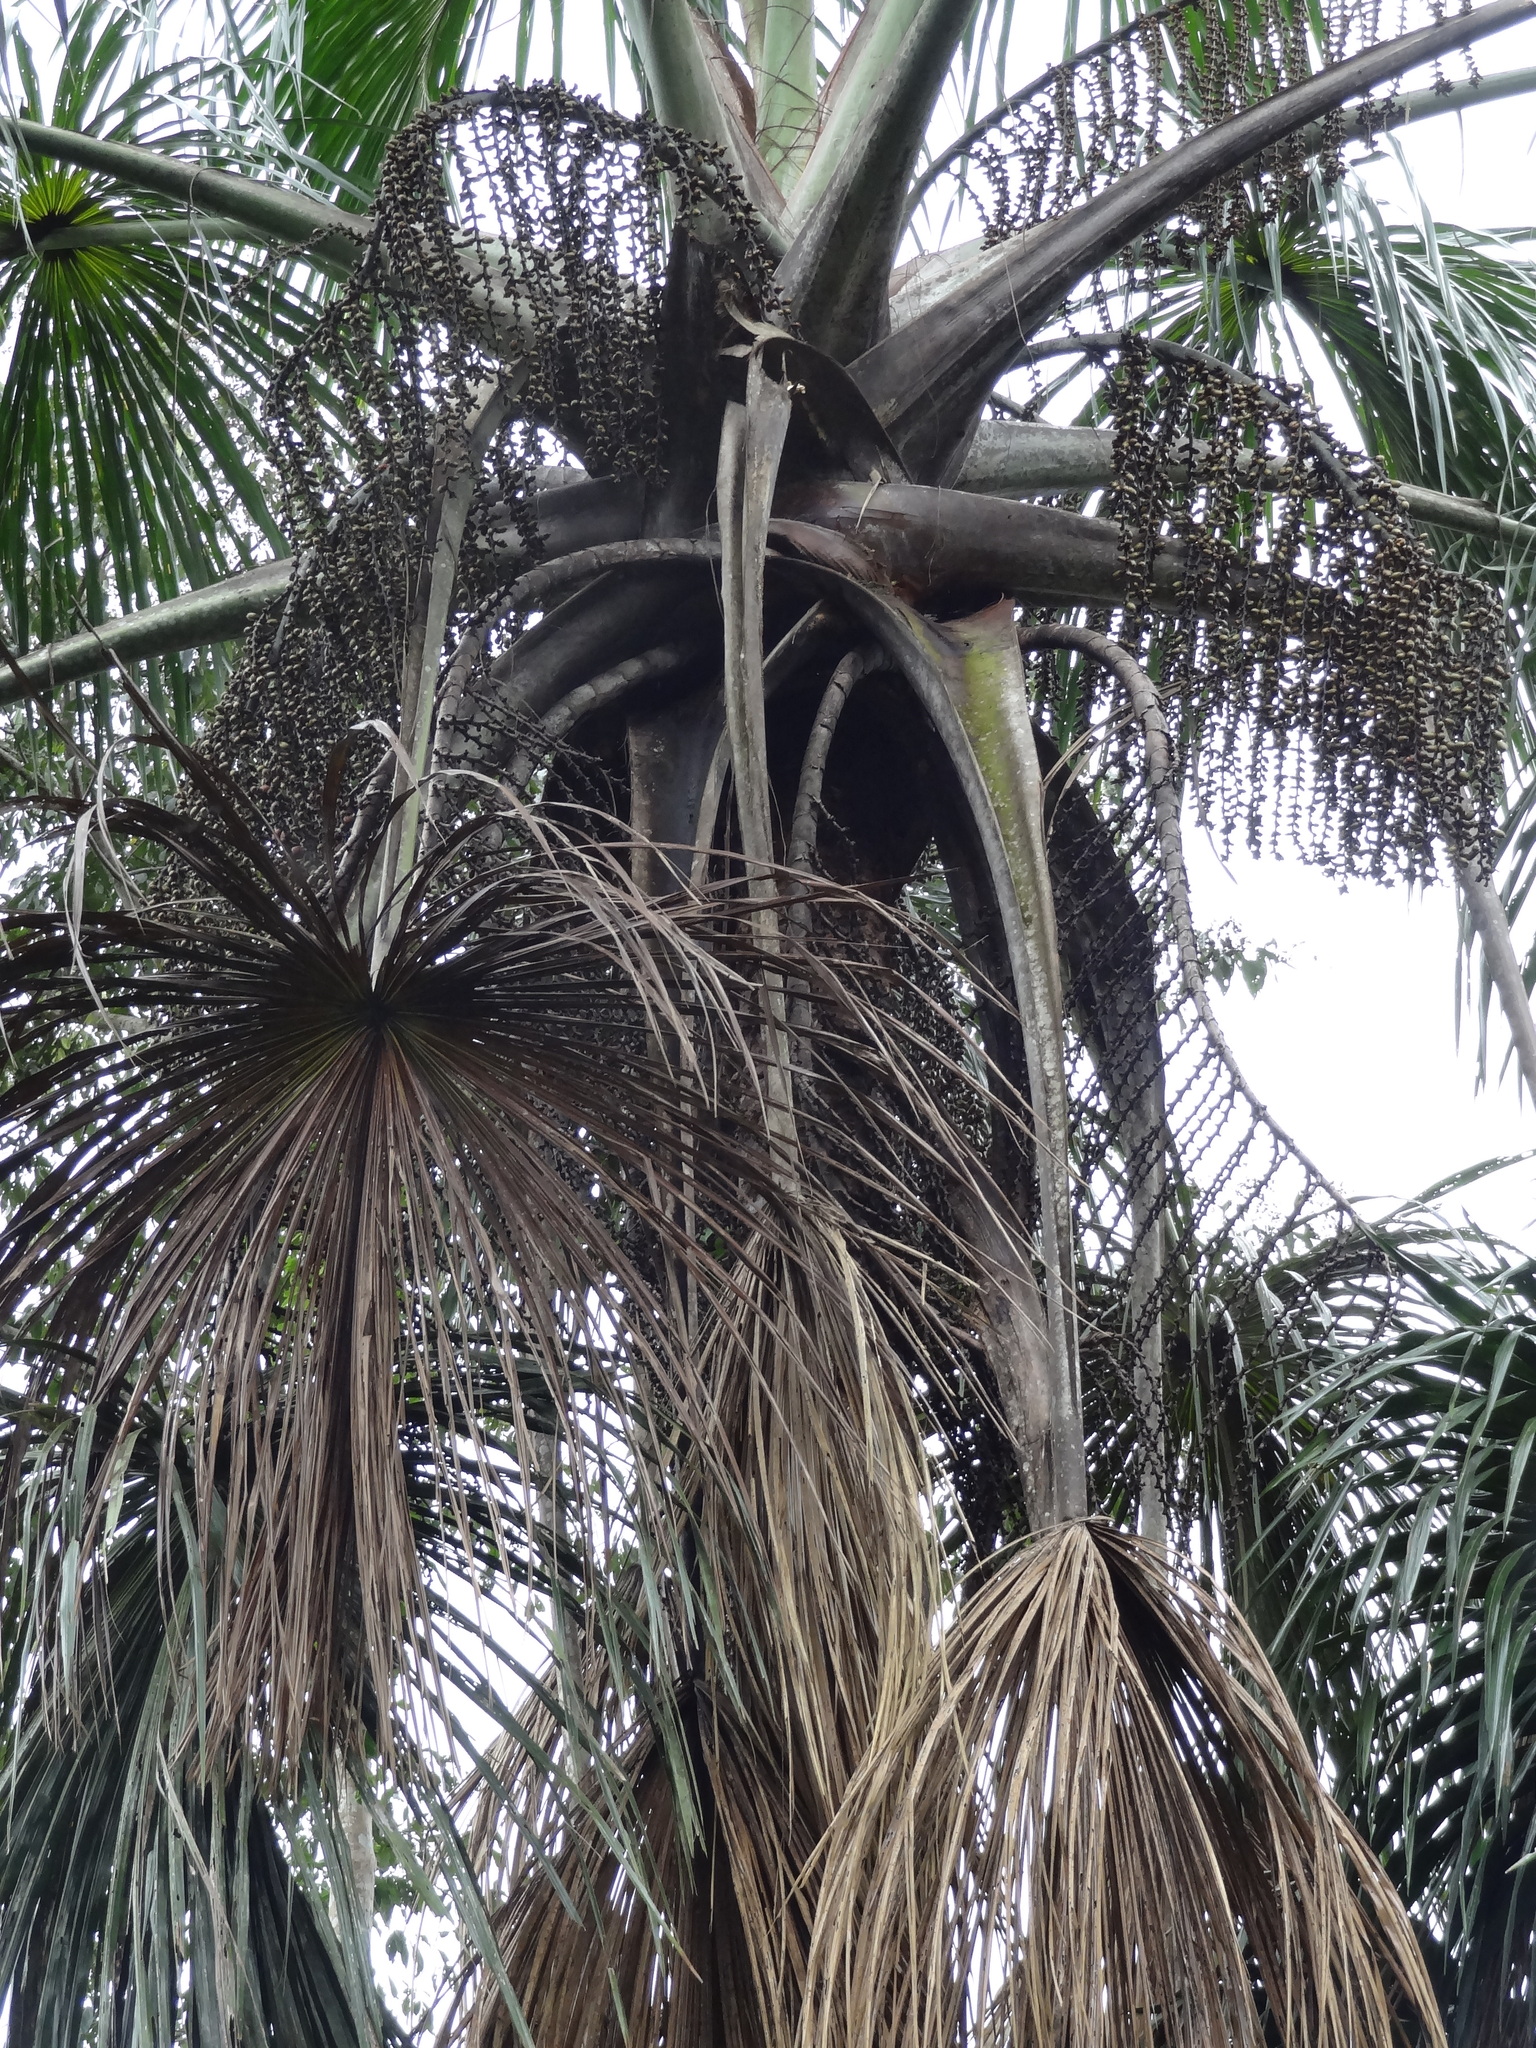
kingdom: Plantae
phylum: Tracheophyta
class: Liliopsida
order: Arecales
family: Arecaceae
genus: Mauritia
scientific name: Mauritia flexuosa
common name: Tree-of-life
